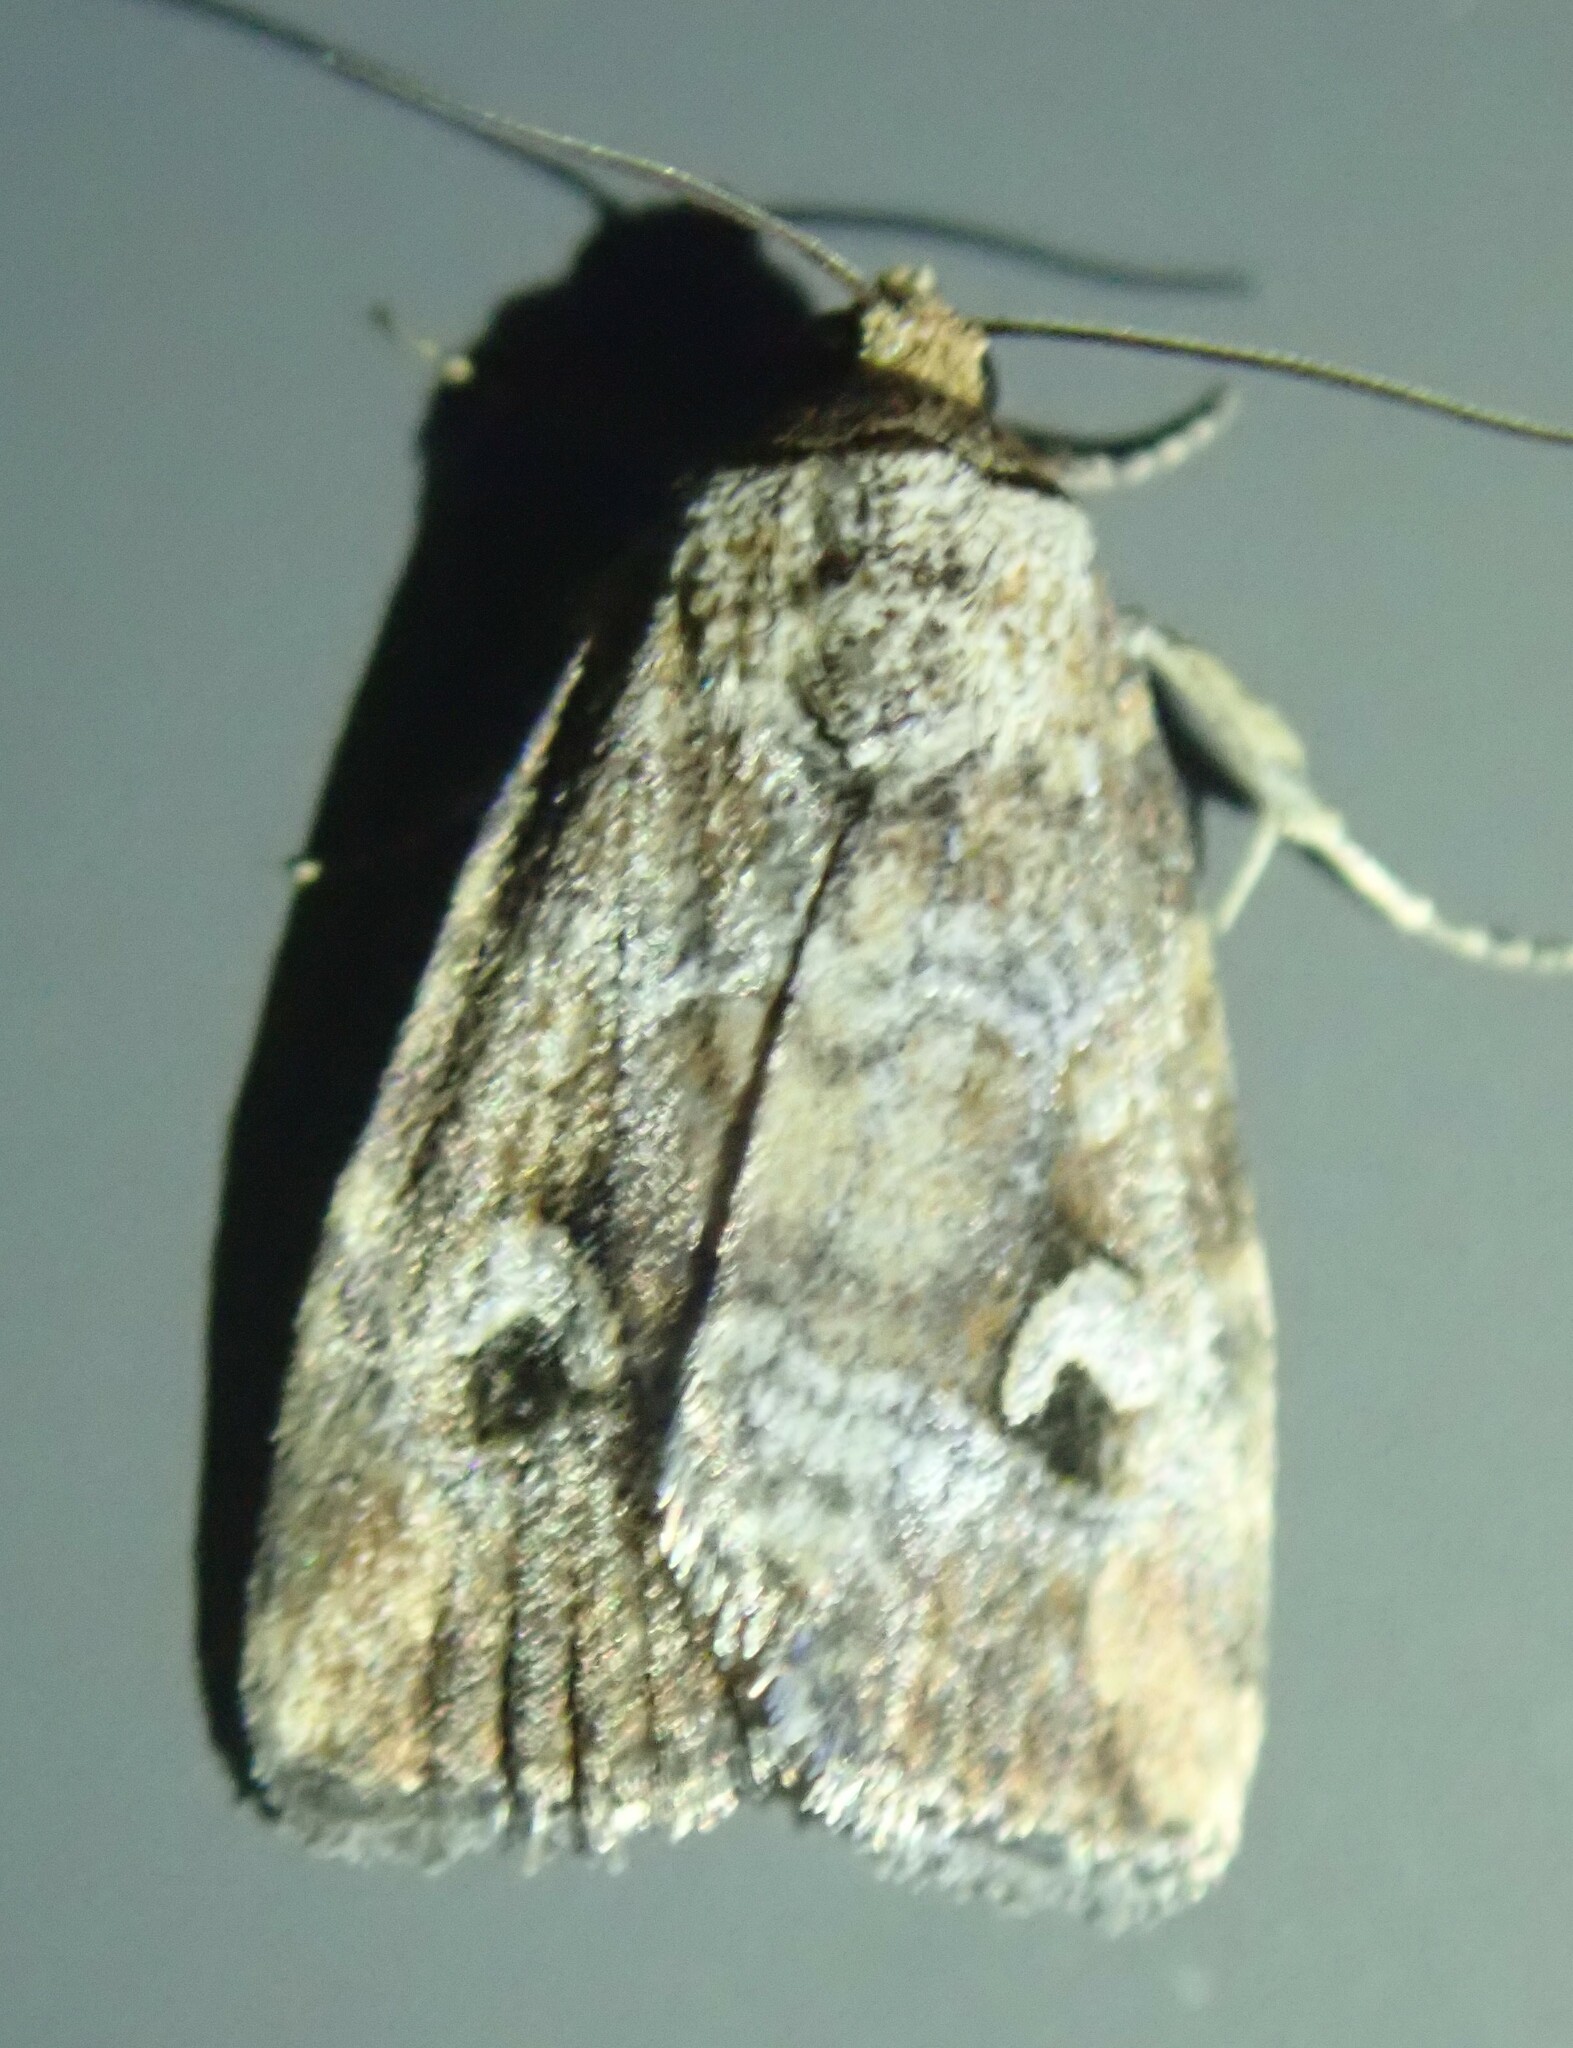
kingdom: Animalia
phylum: Arthropoda
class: Insecta
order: Lepidoptera
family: Noctuidae
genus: Elaphria
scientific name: Elaphria alapallida
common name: Pale-winged midget
